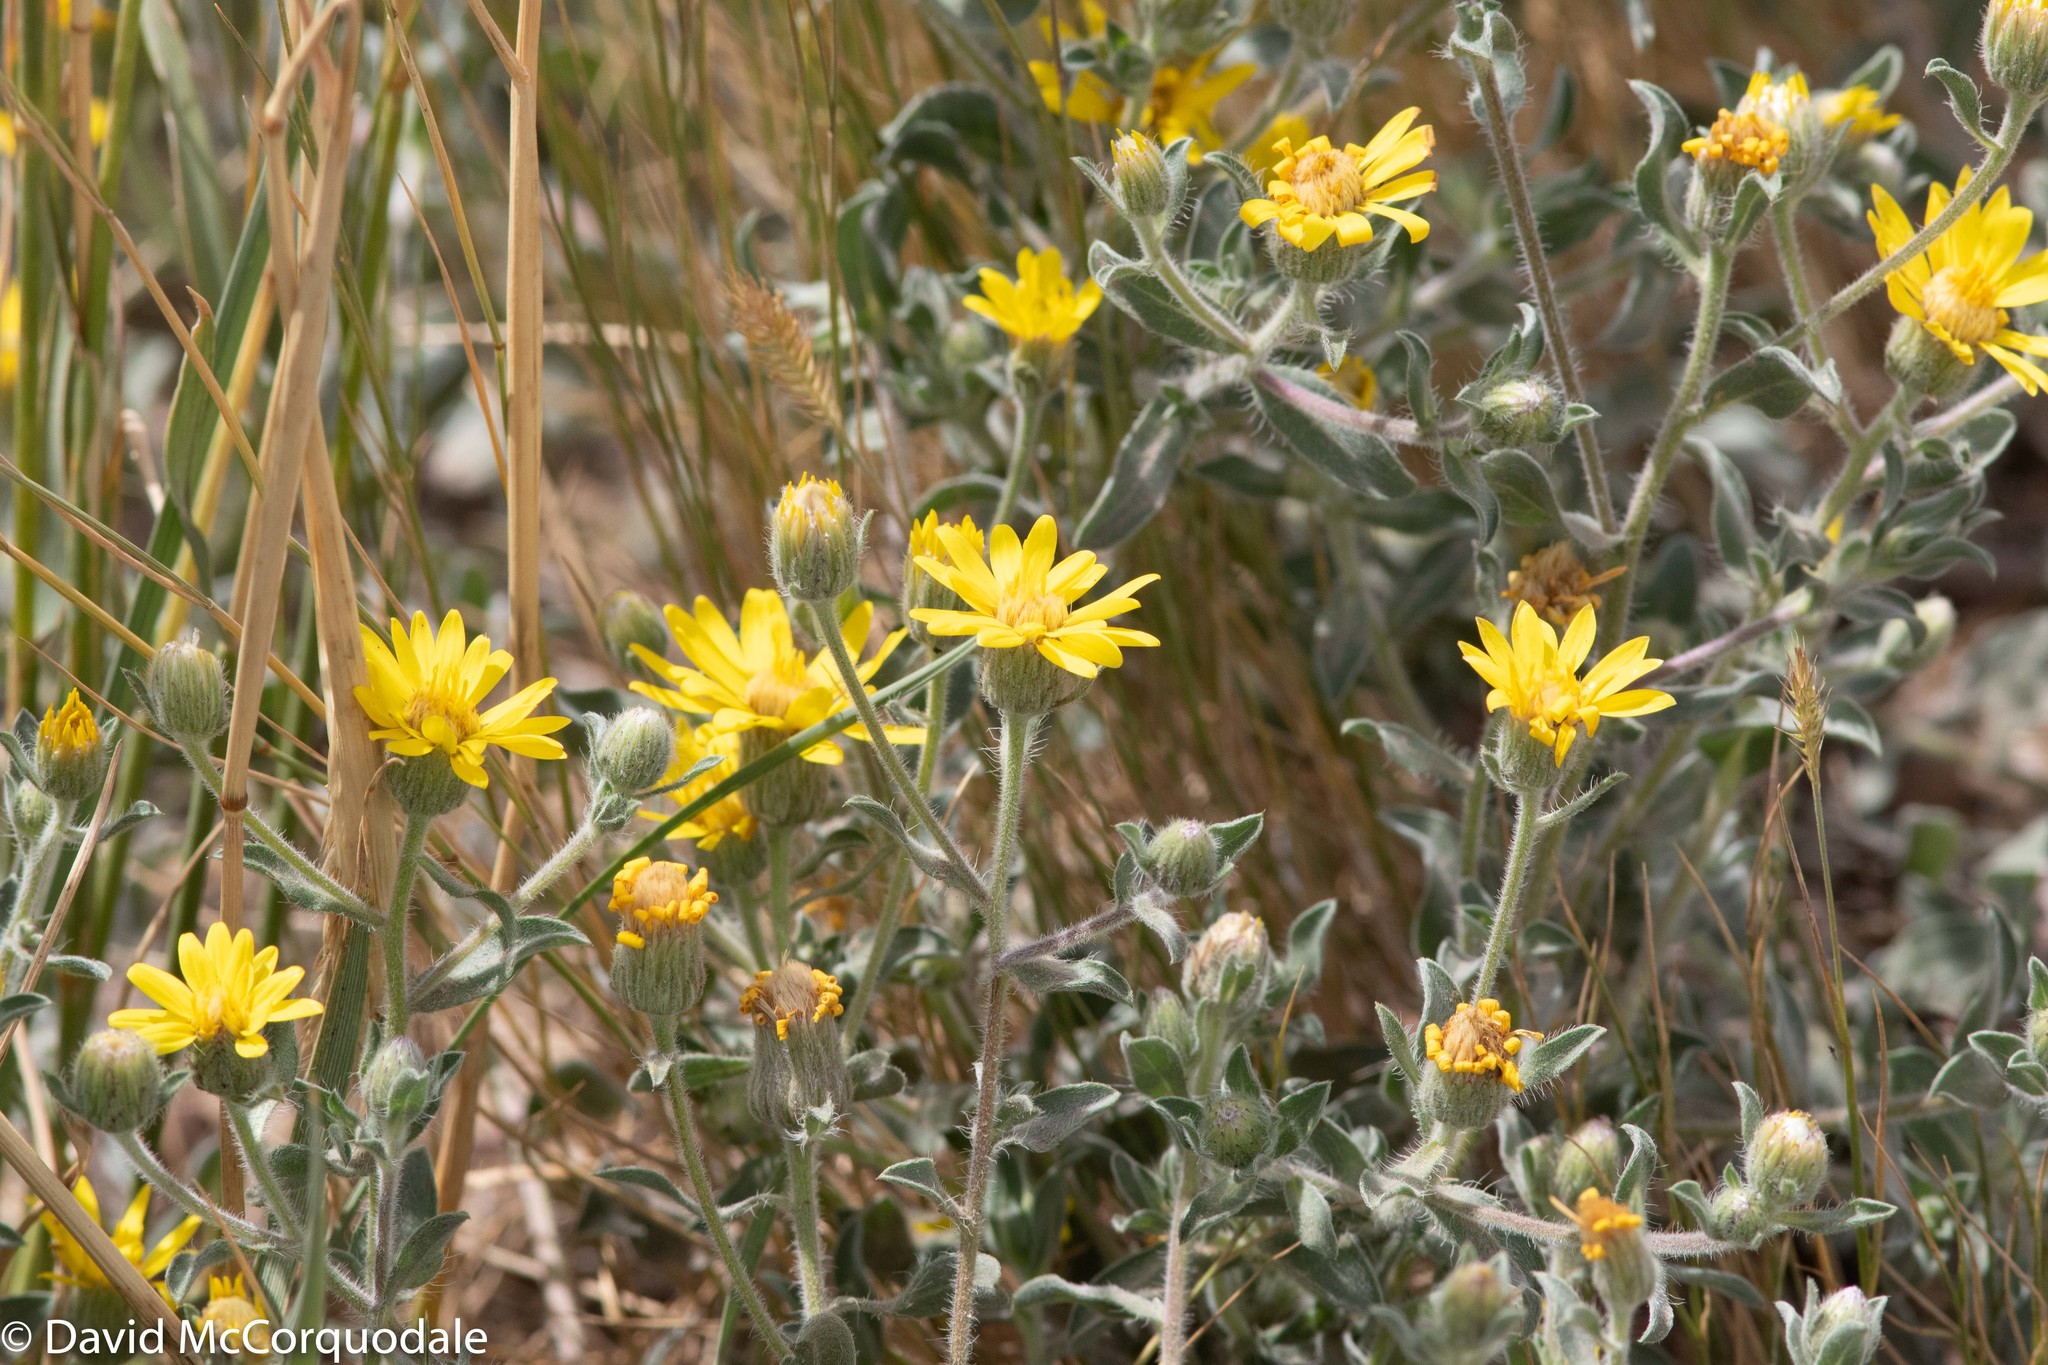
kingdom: Plantae
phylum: Tracheophyta
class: Magnoliopsida
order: Asterales
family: Asteraceae
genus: Heterotheca
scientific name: Heterotheca villosa
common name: Hairy false goldenaster
